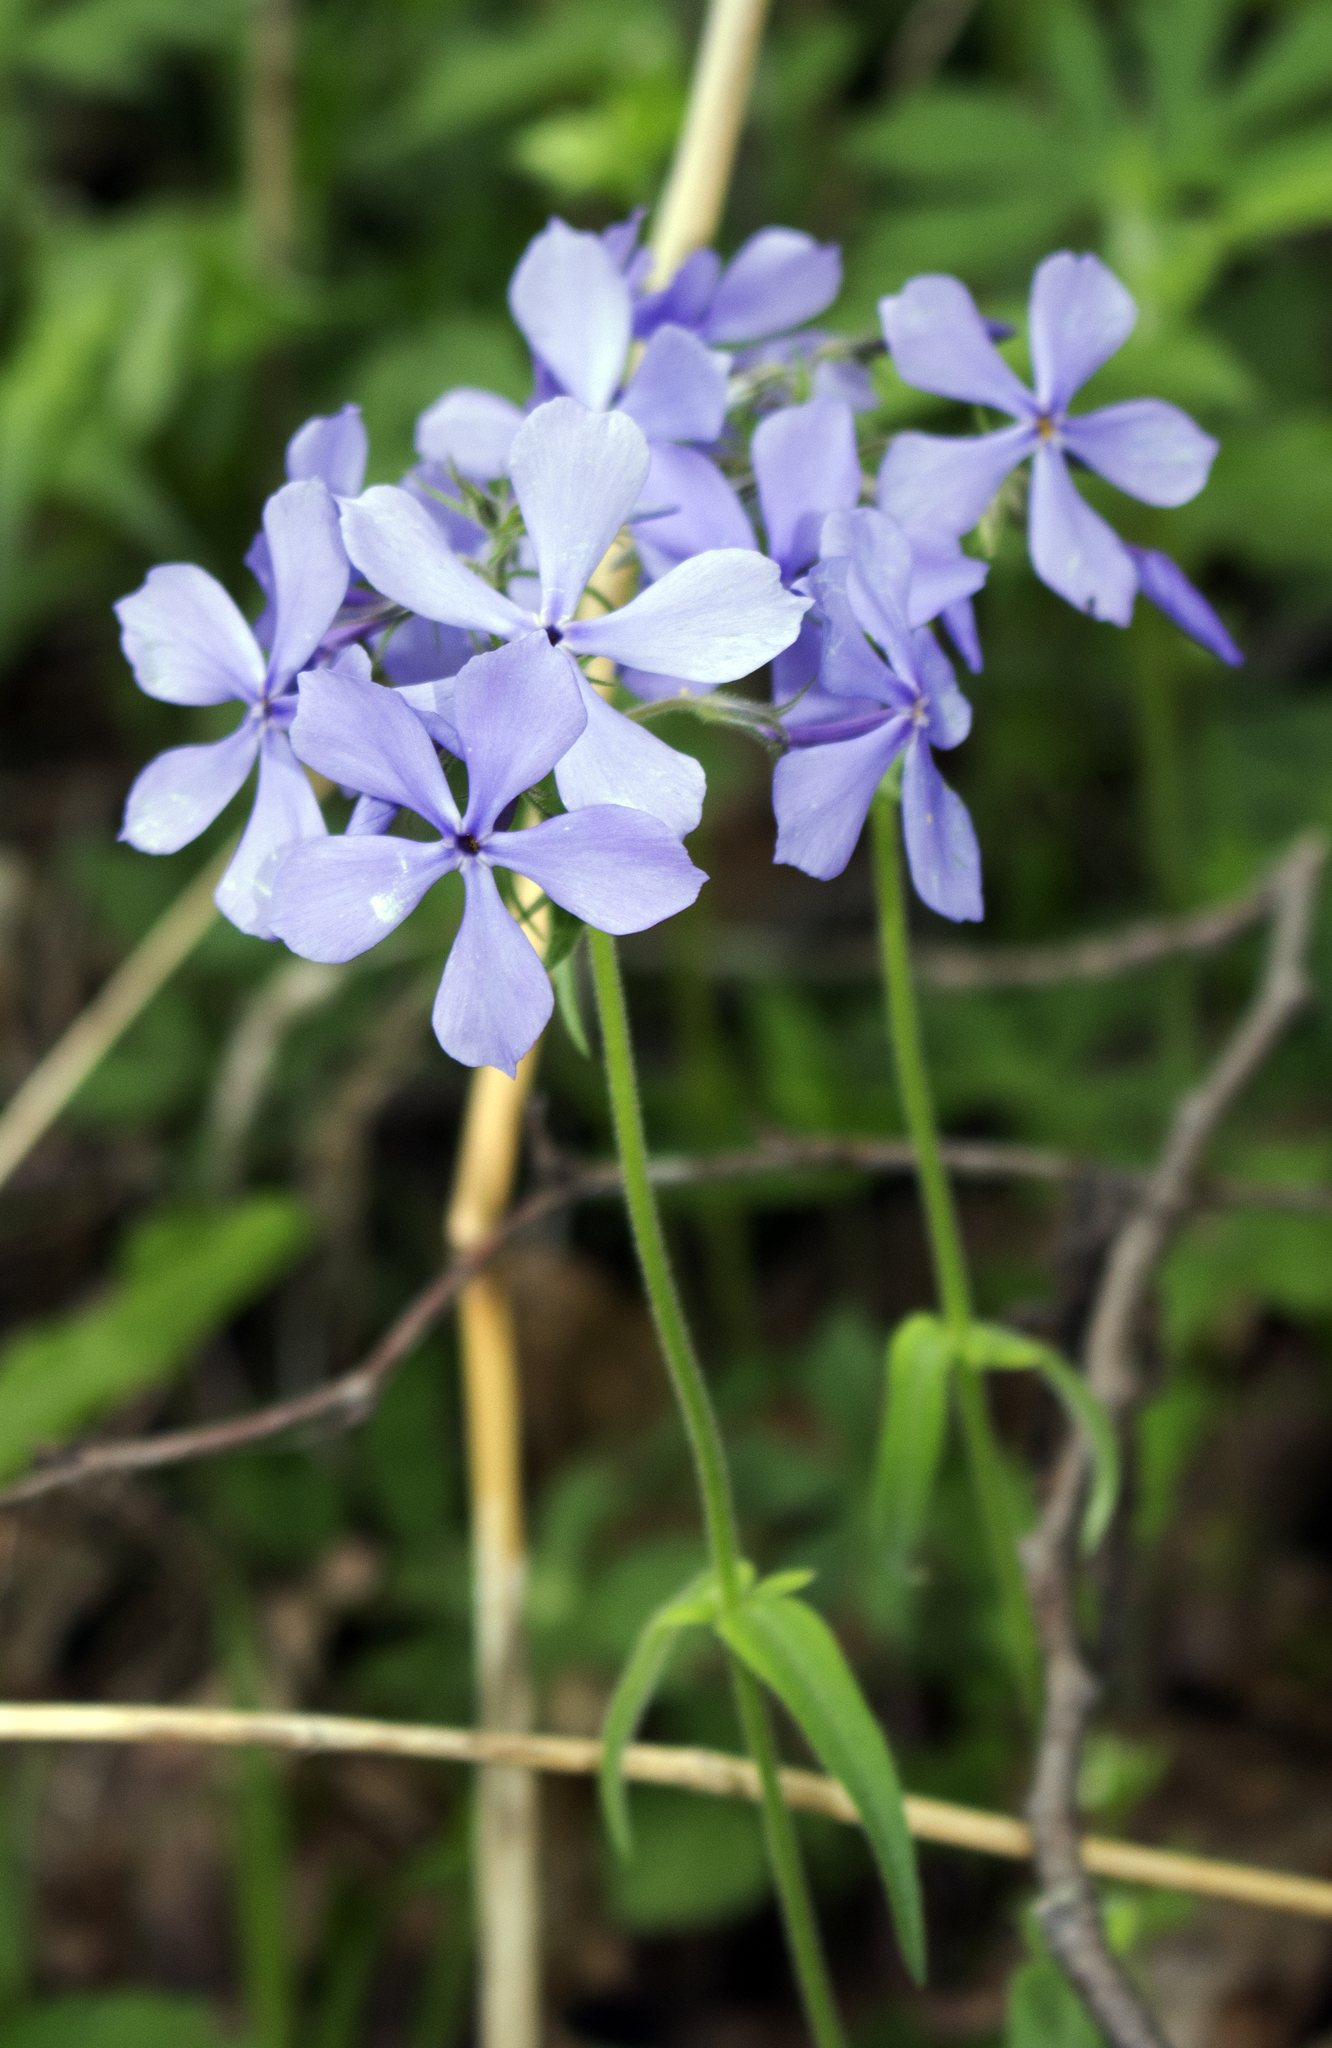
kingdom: Plantae
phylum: Tracheophyta
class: Magnoliopsida
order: Ericales
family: Polemoniaceae
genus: Phlox
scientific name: Phlox divaricata
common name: Blue phlox
